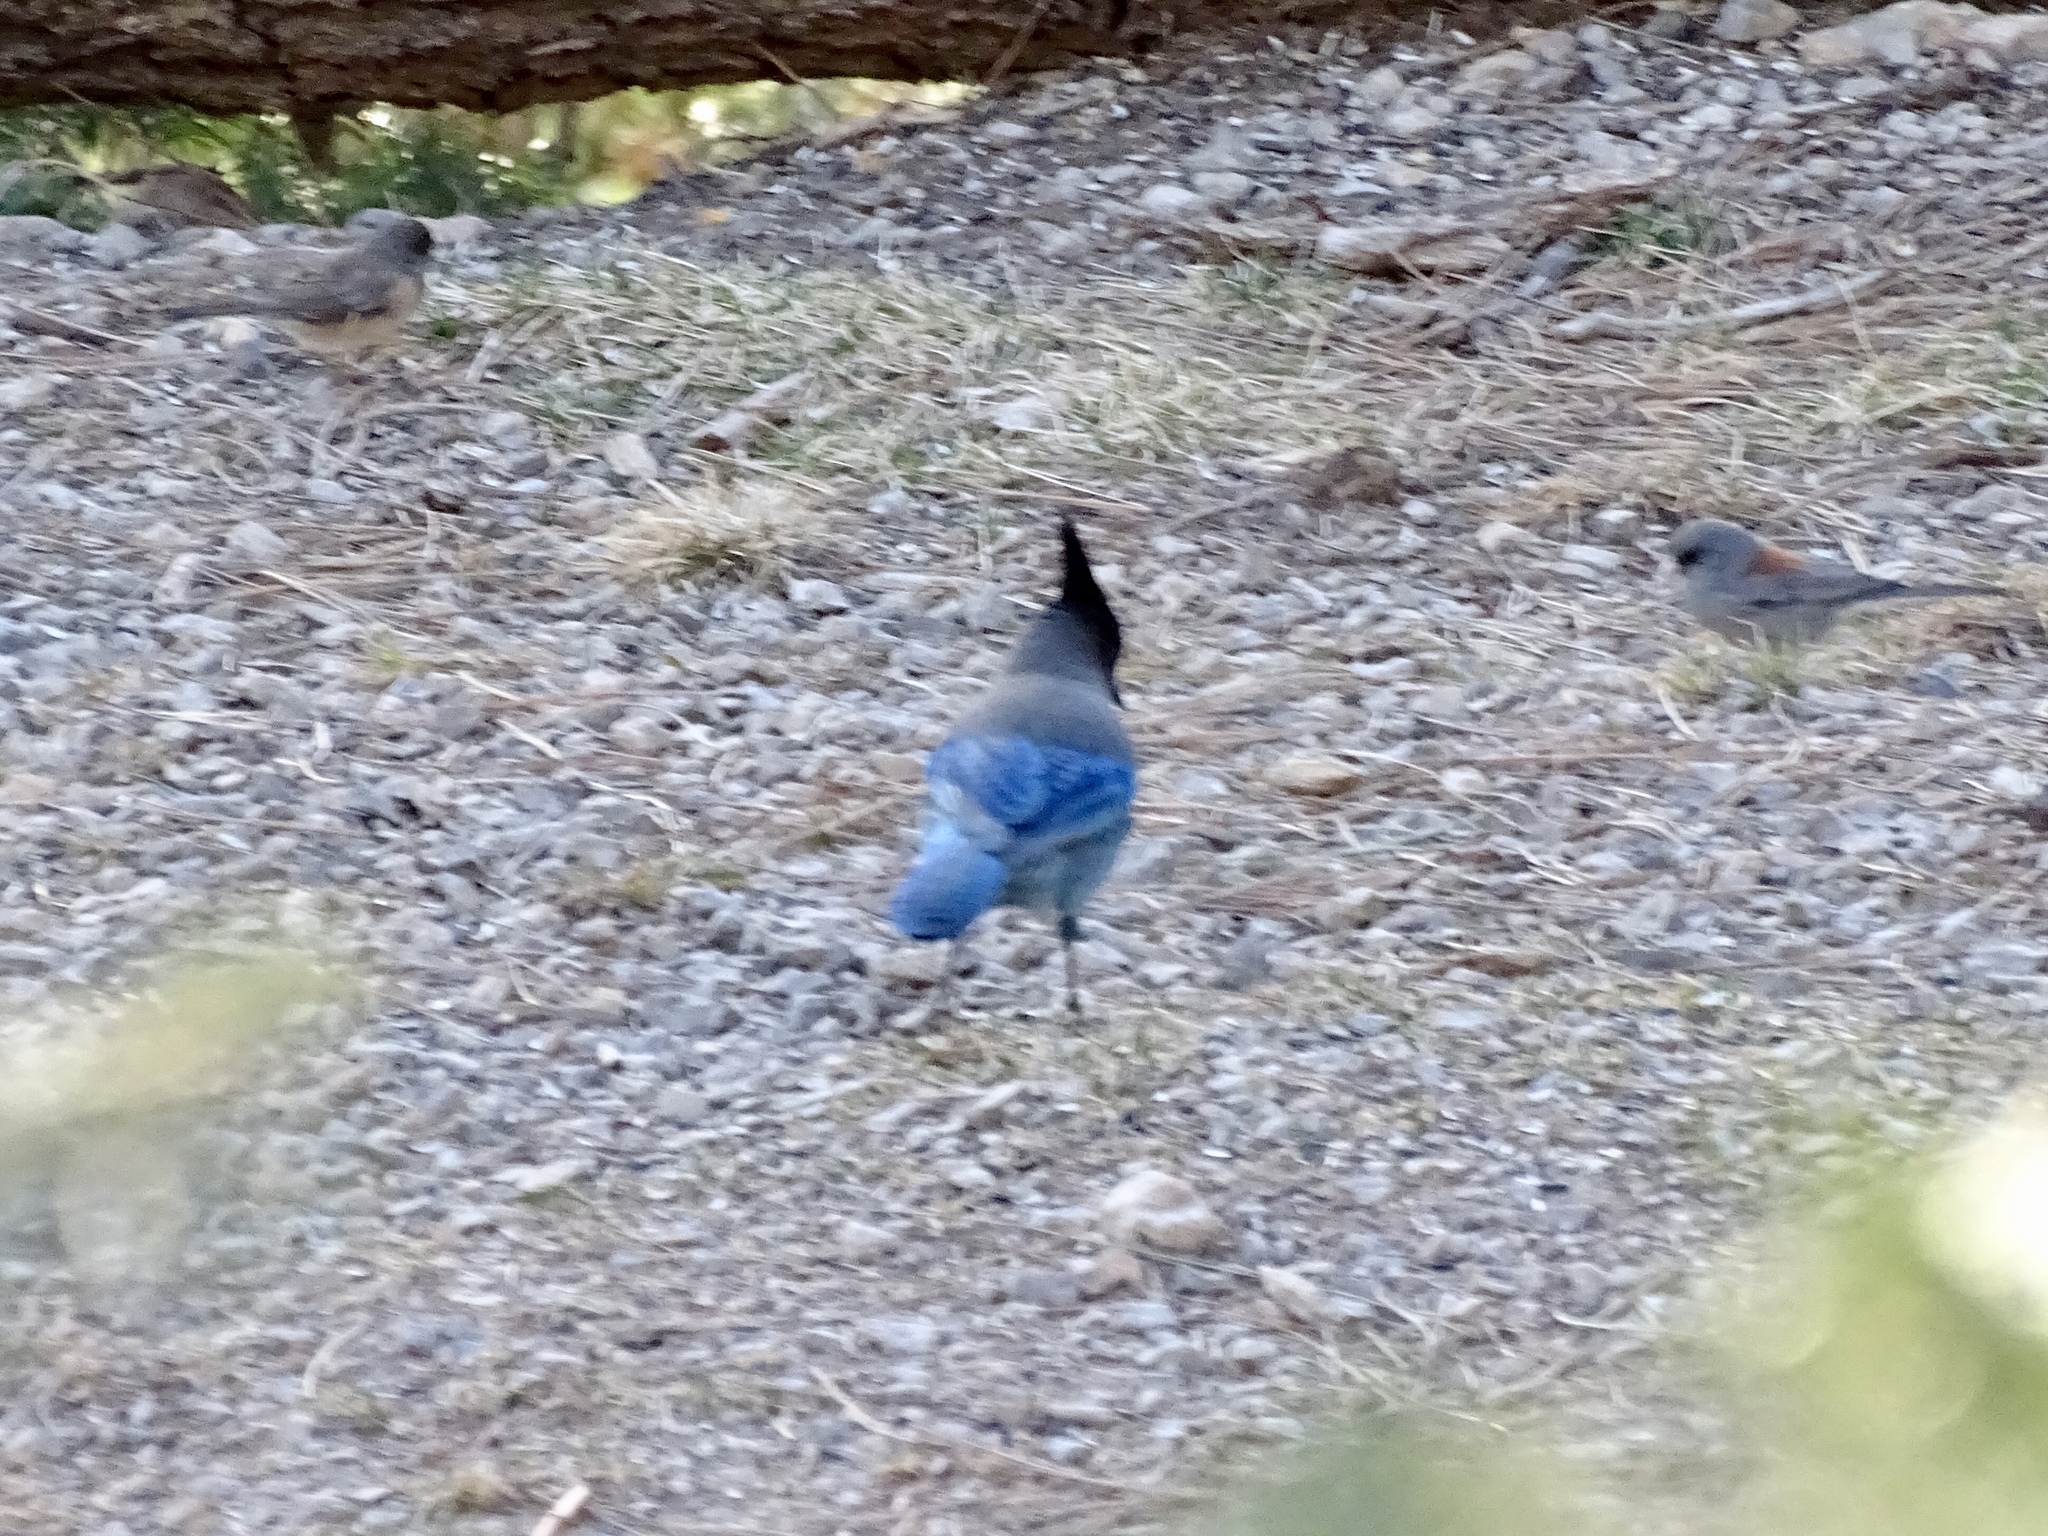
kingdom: Animalia
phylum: Chordata
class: Aves
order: Passeriformes
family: Corvidae
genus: Cyanocitta
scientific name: Cyanocitta stelleri
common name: Steller's jay
